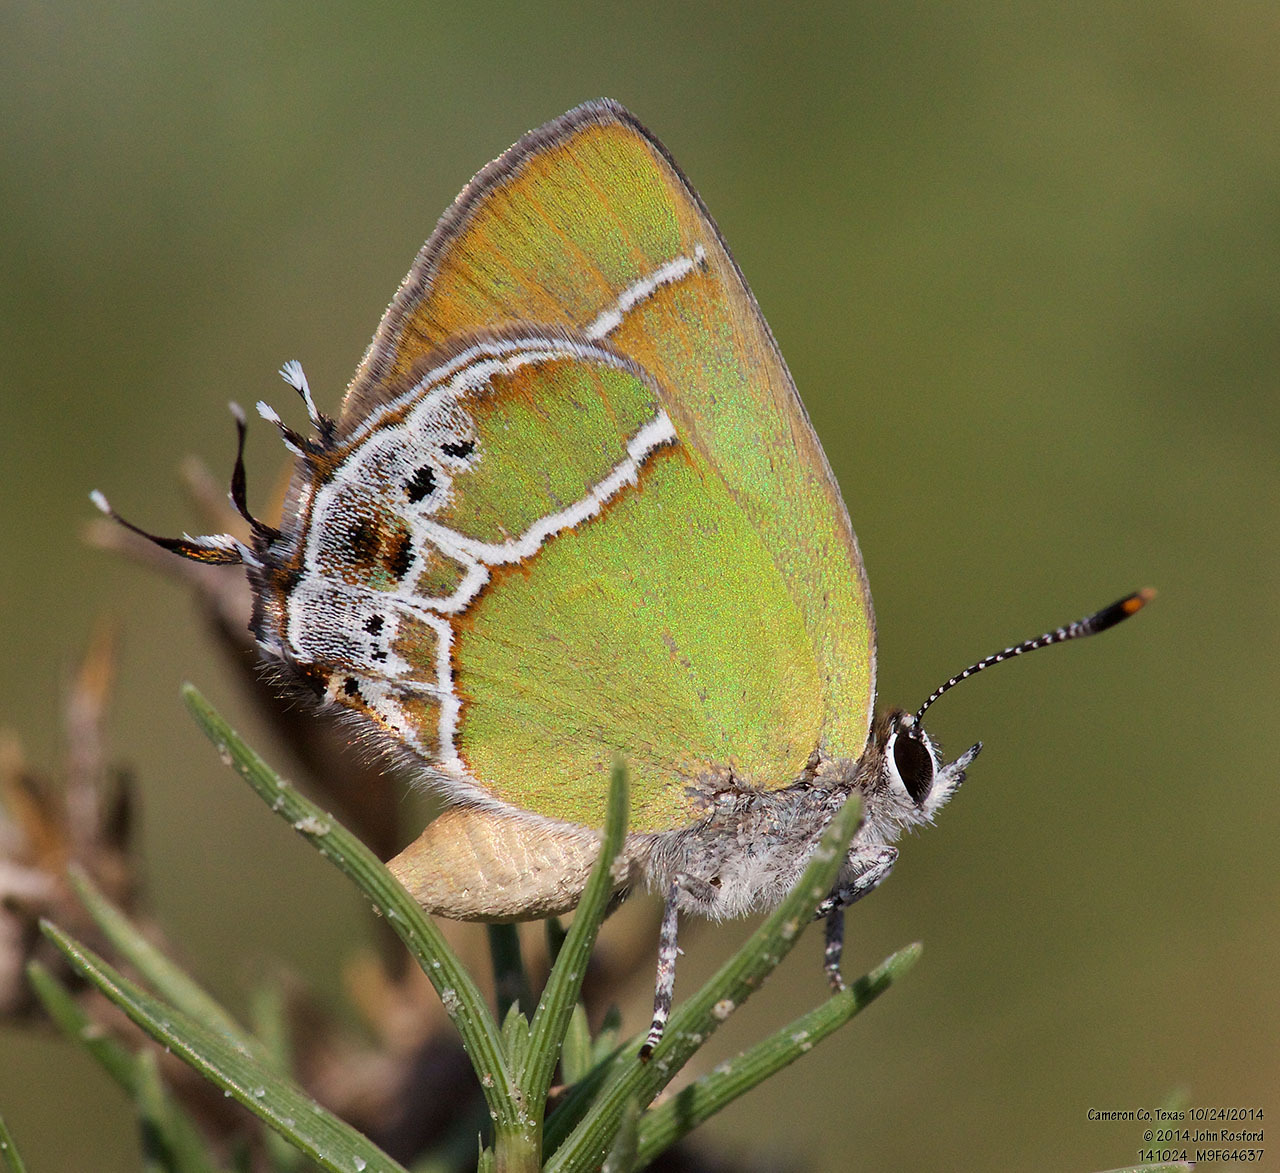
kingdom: Animalia
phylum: Arthropoda
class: Insecta
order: Lepidoptera
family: Lycaenidae
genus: Xamia
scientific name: Xamia xami
